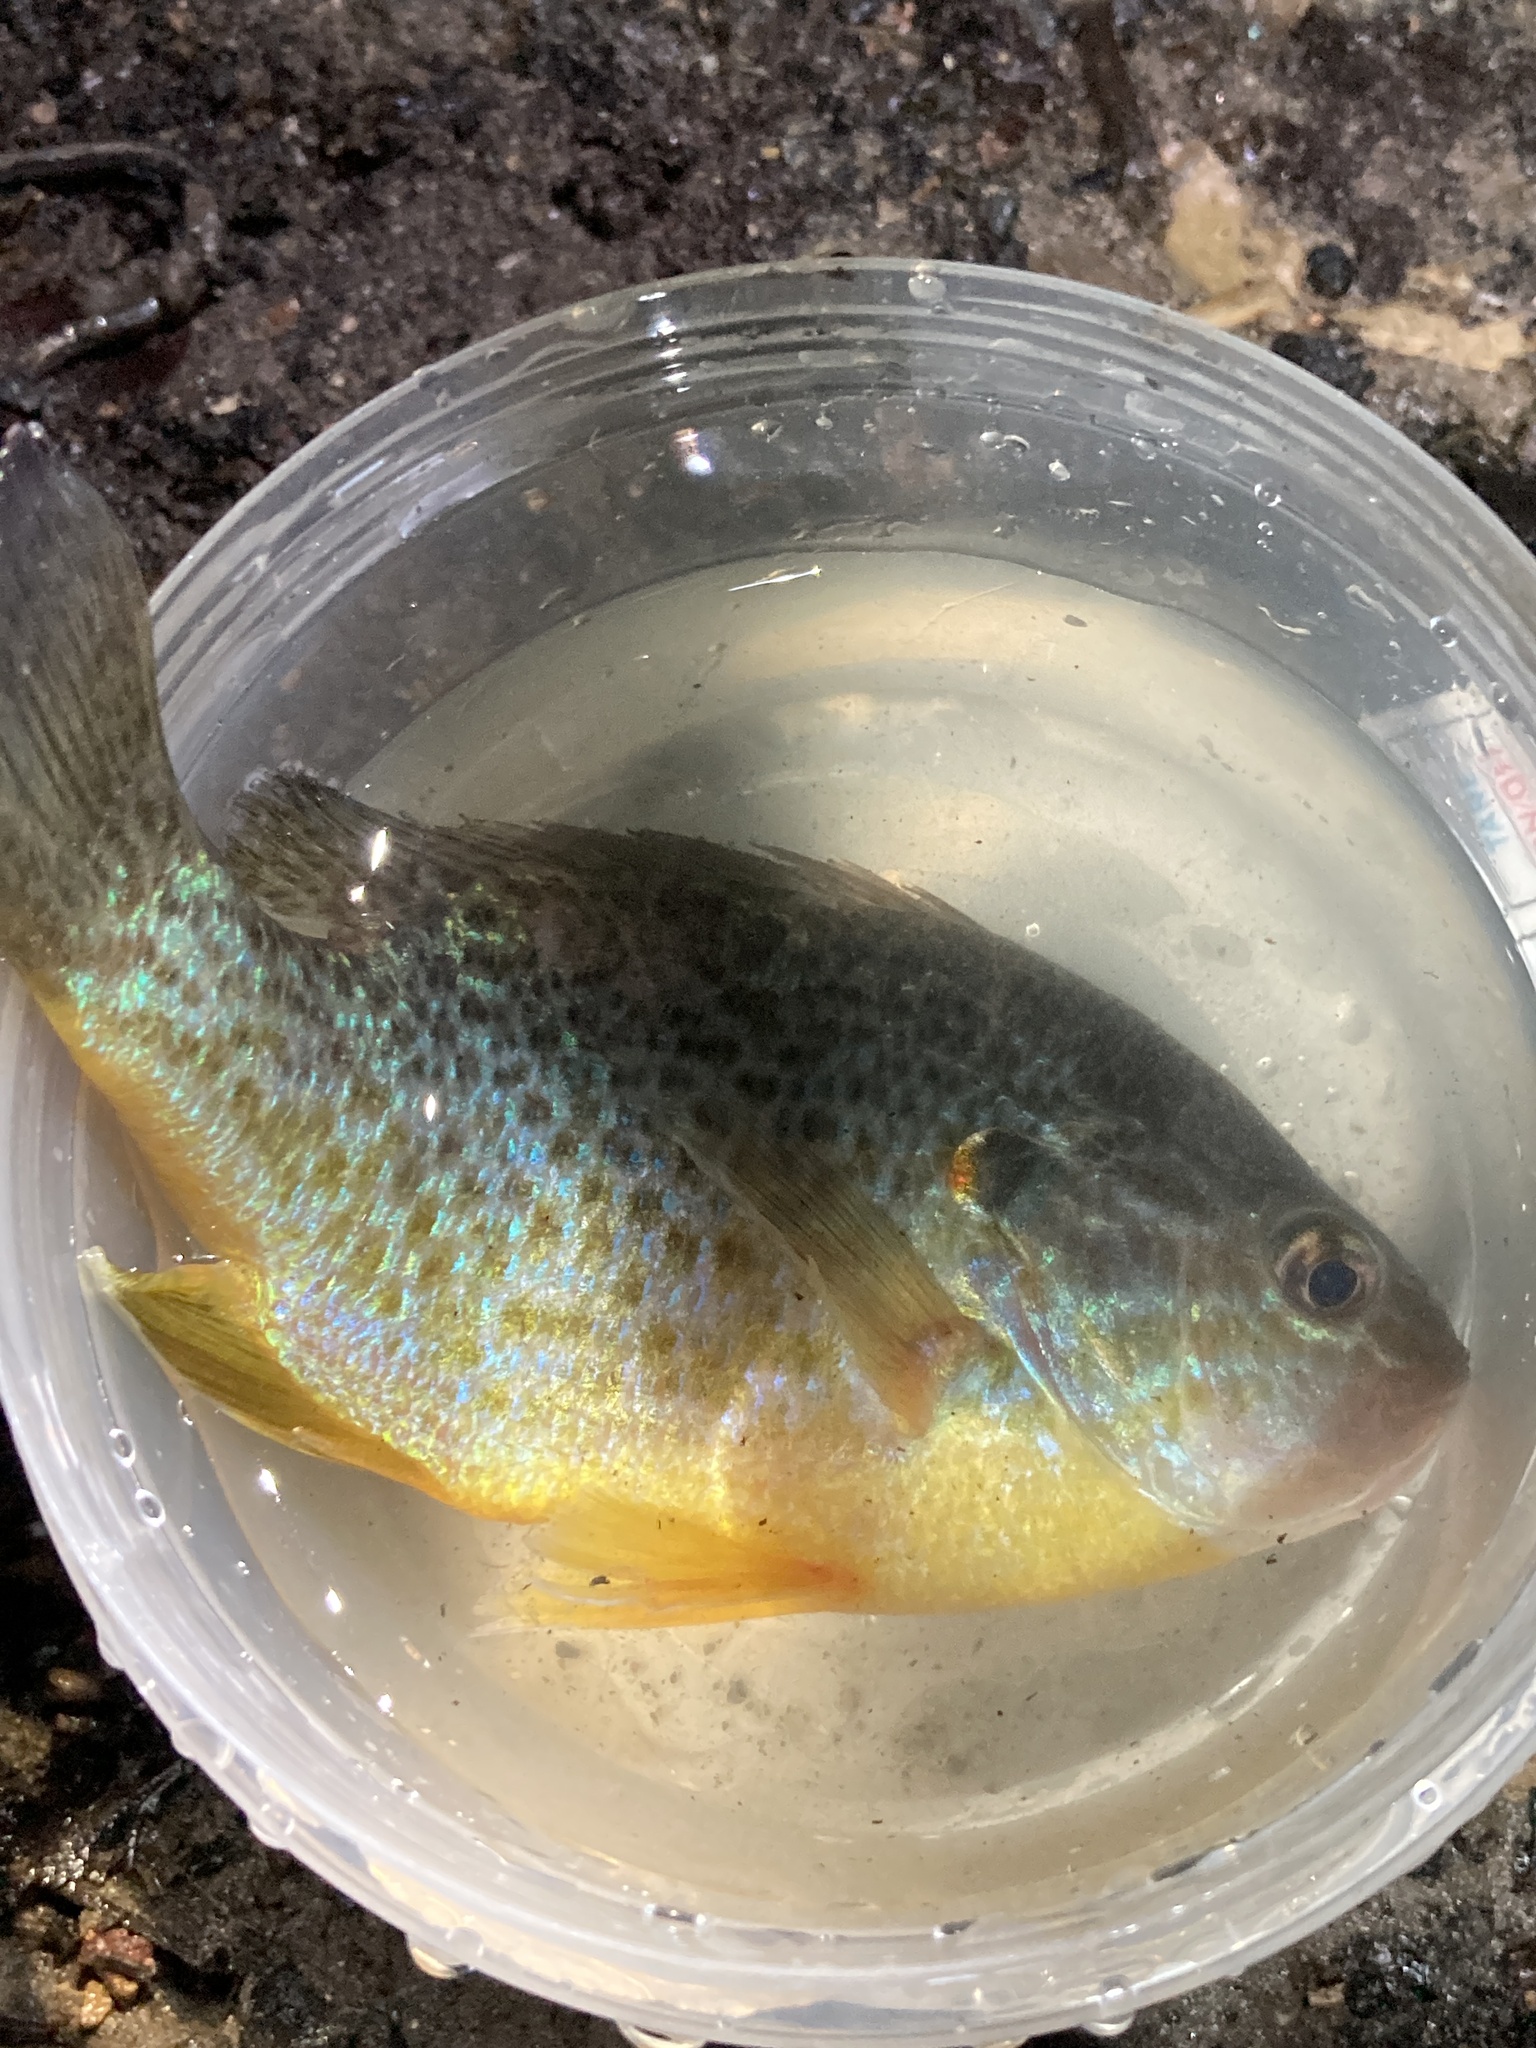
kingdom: Animalia
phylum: Chordata
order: Perciformes
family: Centrarchidae
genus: Lepomis
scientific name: Lepomis gibbosus
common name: Pumpkinseed
